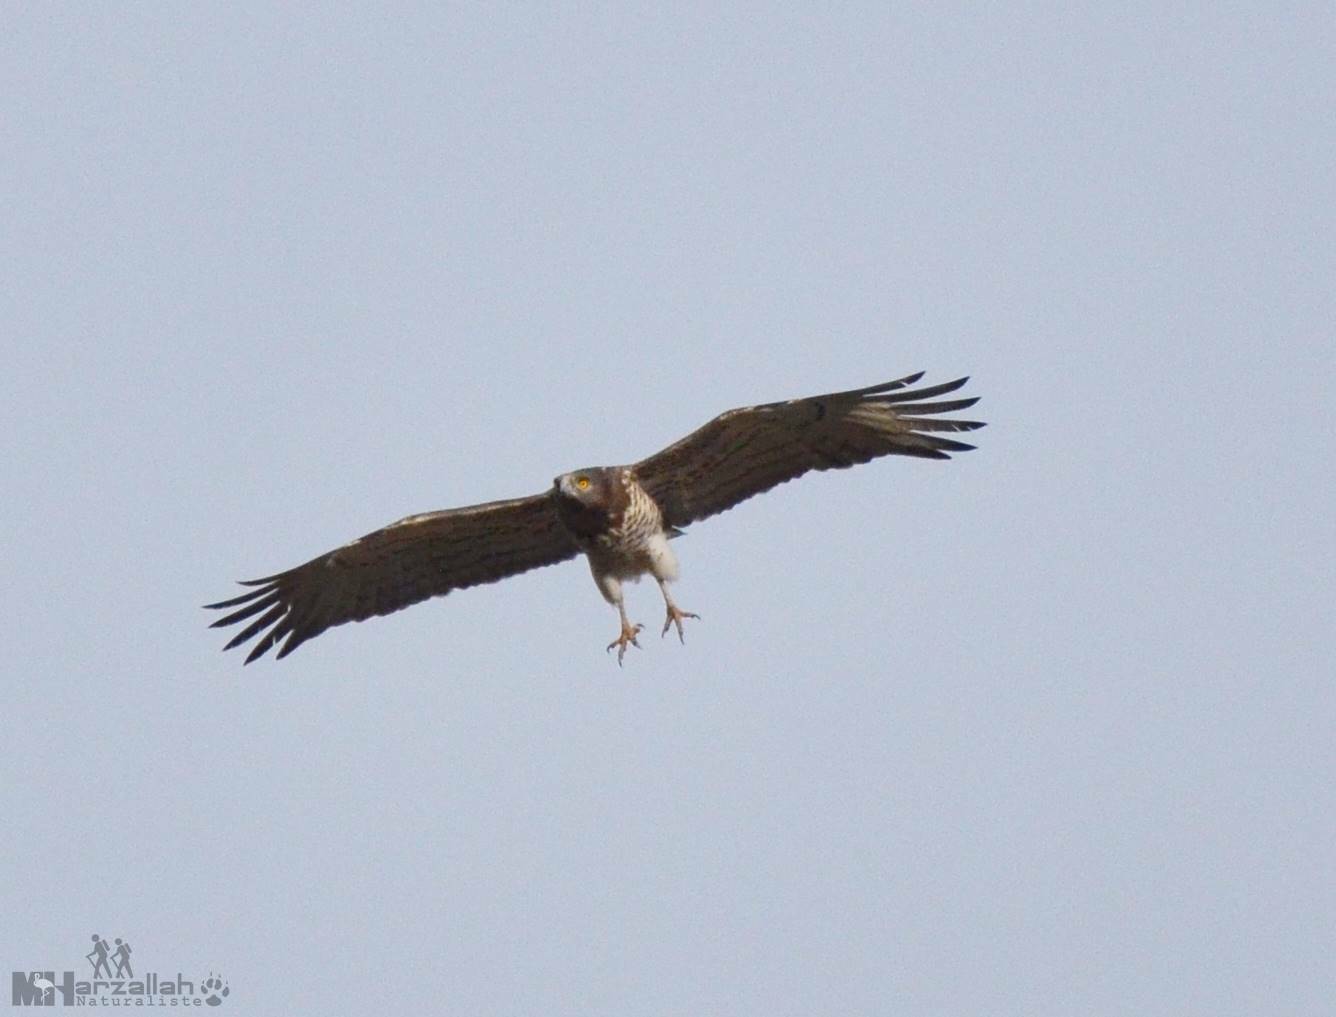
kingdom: Animalia
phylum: Chordata
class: Aves
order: Accipitriformes
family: Accipitridae
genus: Circaetus
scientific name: Circaetus gallicus
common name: Short-toed snake eagle
